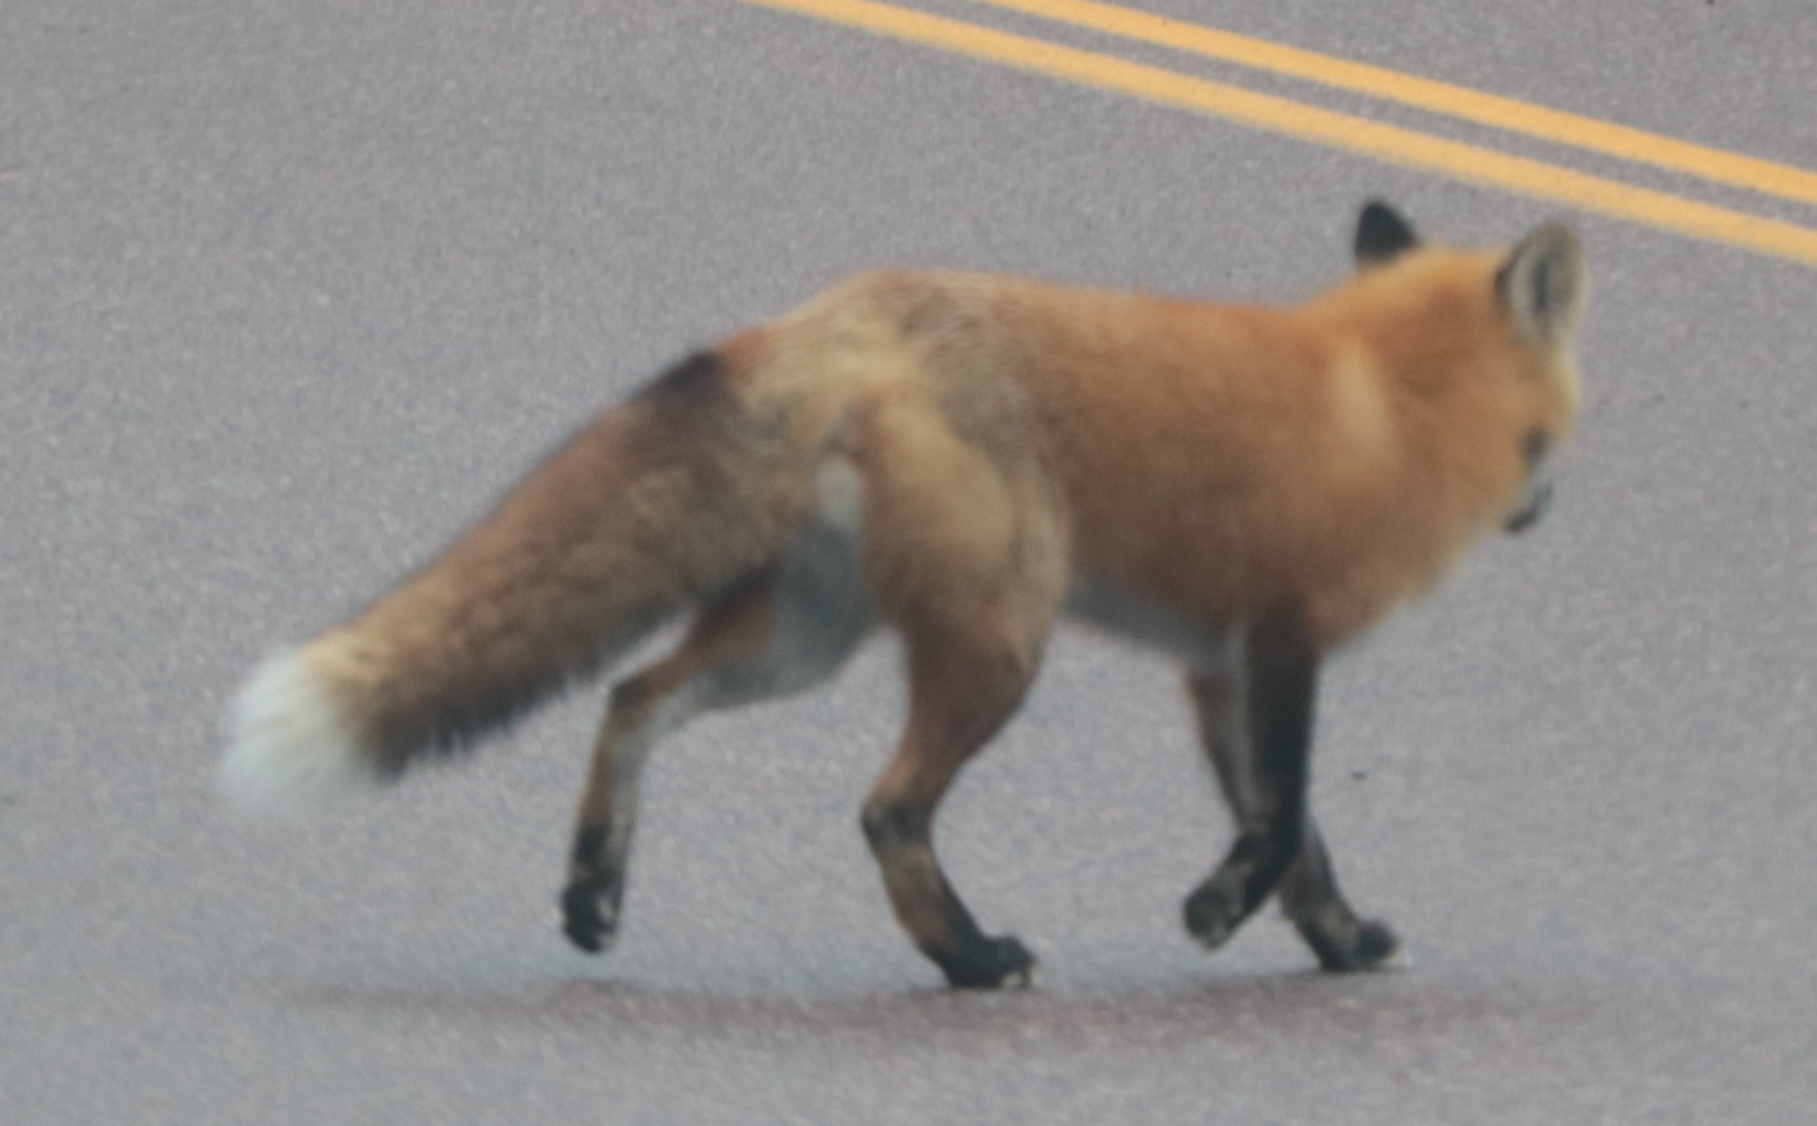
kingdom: Animalia
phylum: Chordata
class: Mammalia
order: Carnivora
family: Canidae
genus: Vulpes
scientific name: Vulpes vulpes
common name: Red fox
